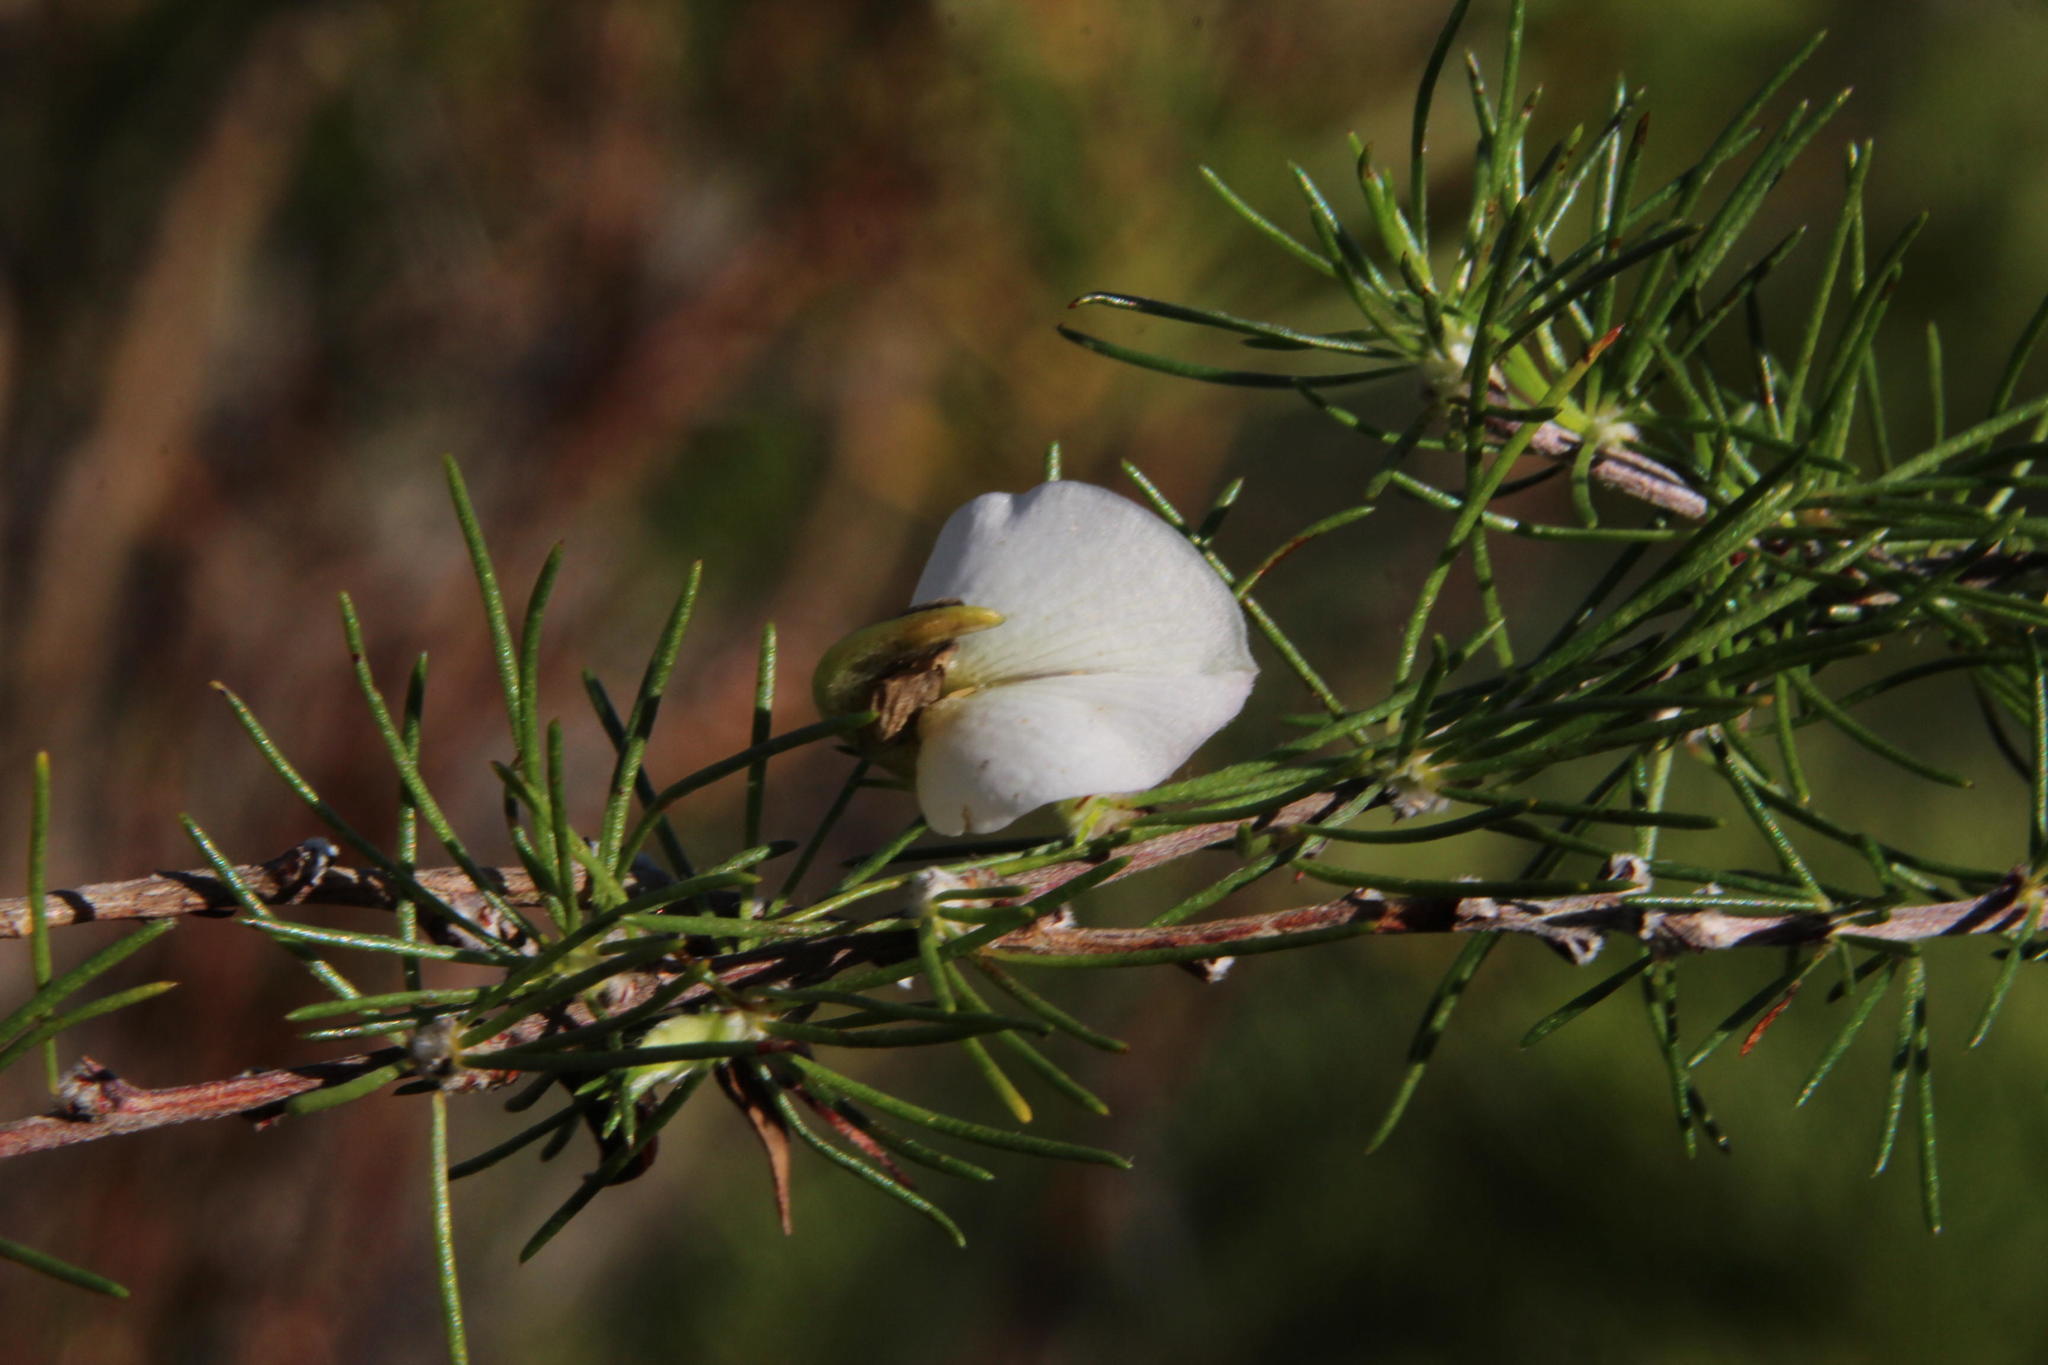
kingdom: Plantae
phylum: Tracheophyta
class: Magnoliopsida
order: Fabales
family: Fabaceae
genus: Aspalathus
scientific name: Aspalathus willdenowiana
